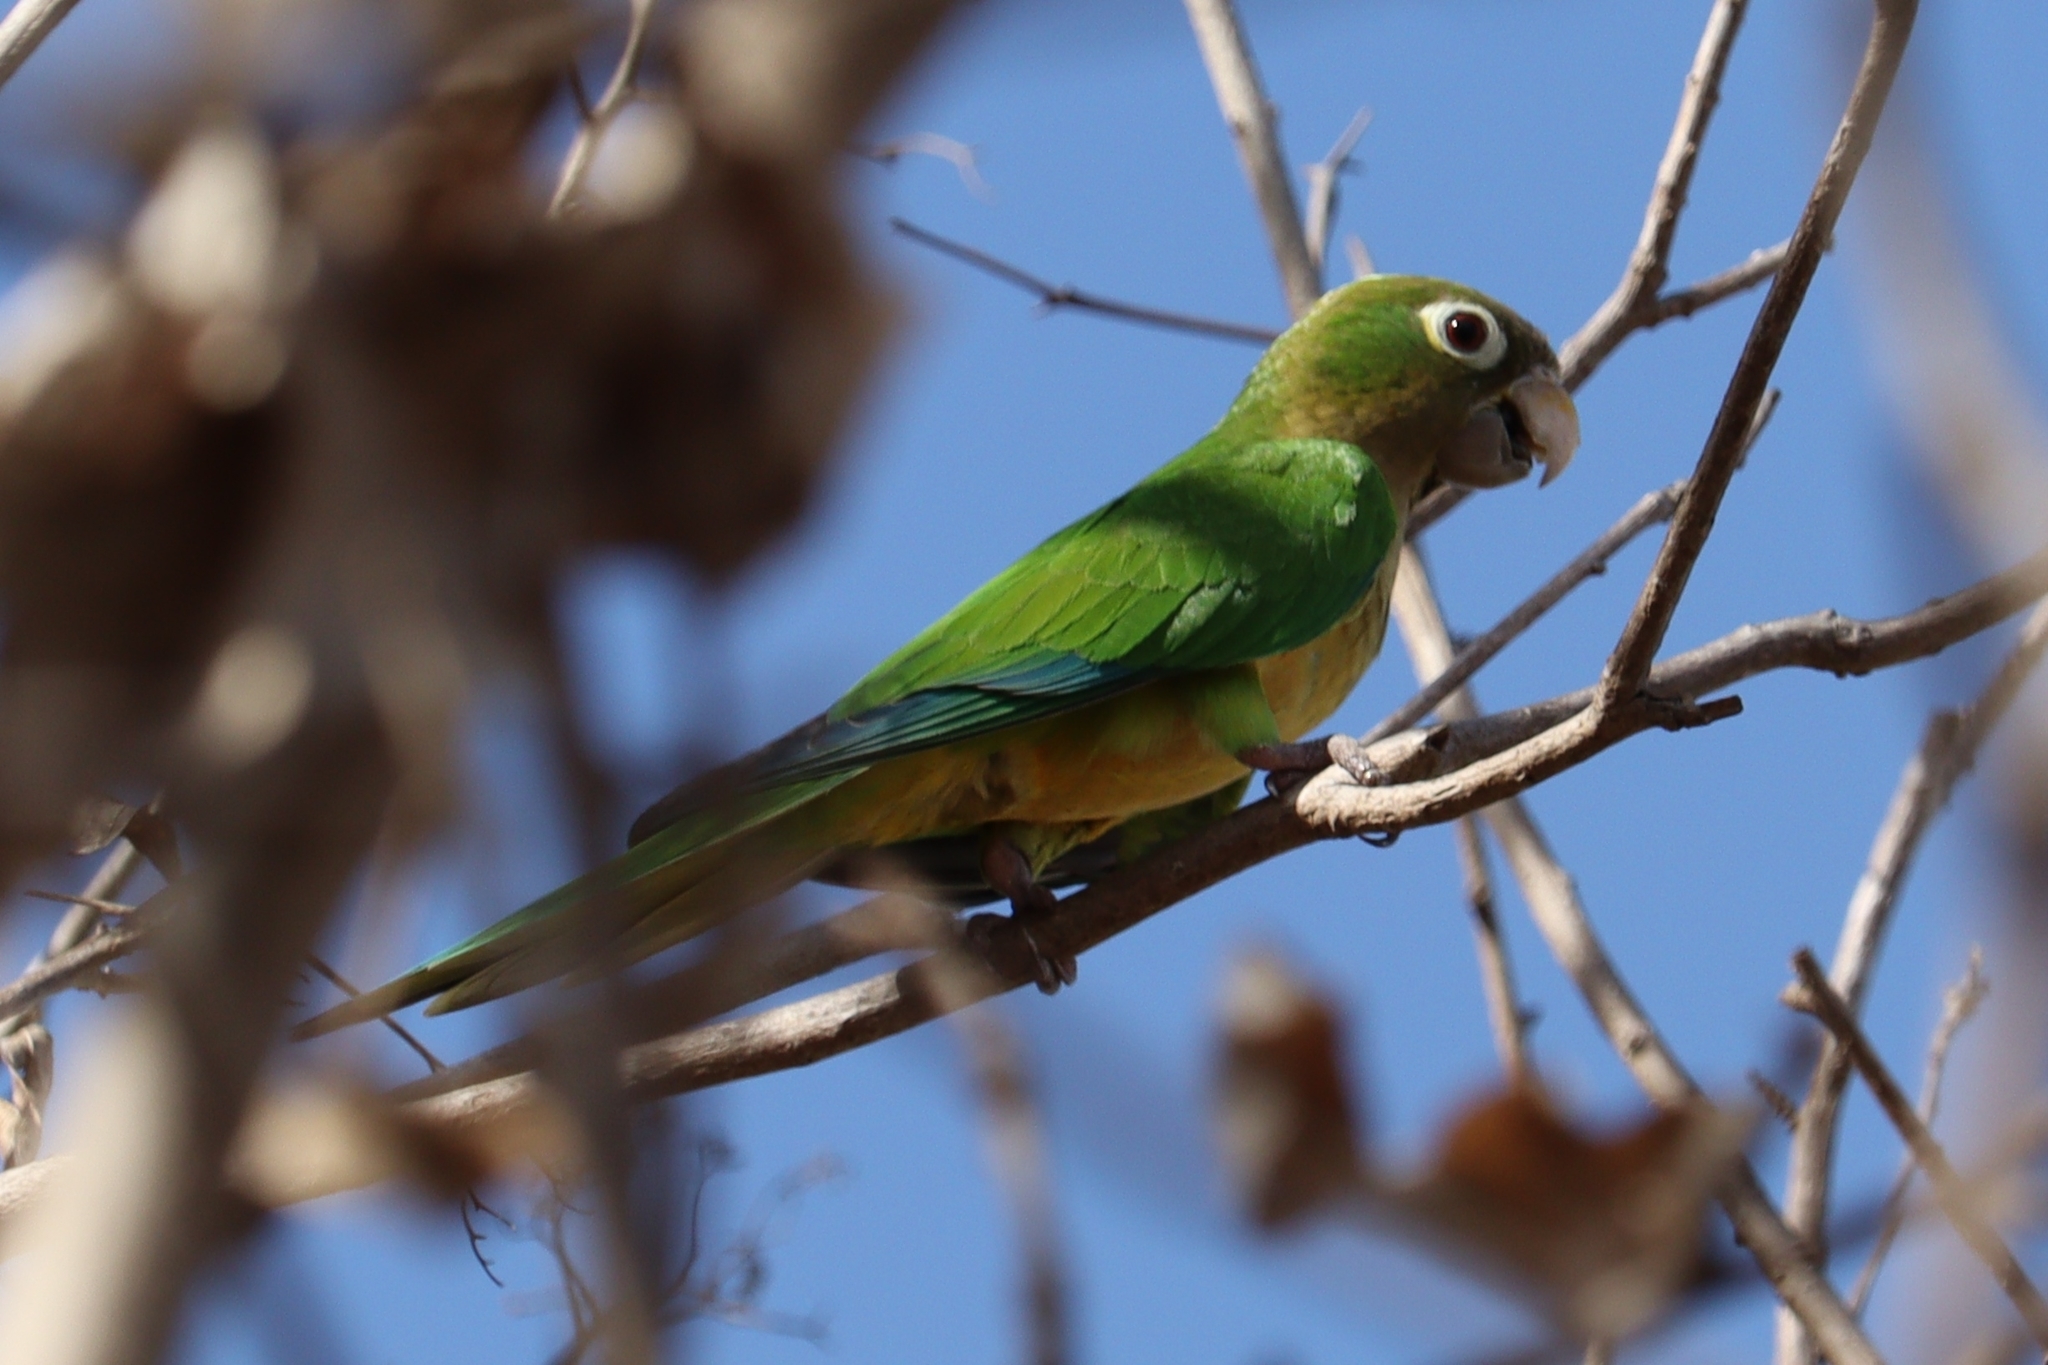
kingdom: Animalia
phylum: Chordata
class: Aves
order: Psittaciformes
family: Psittacidae
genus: Aratinga
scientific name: Aratinga cactorum
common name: Caatinga parakeet
